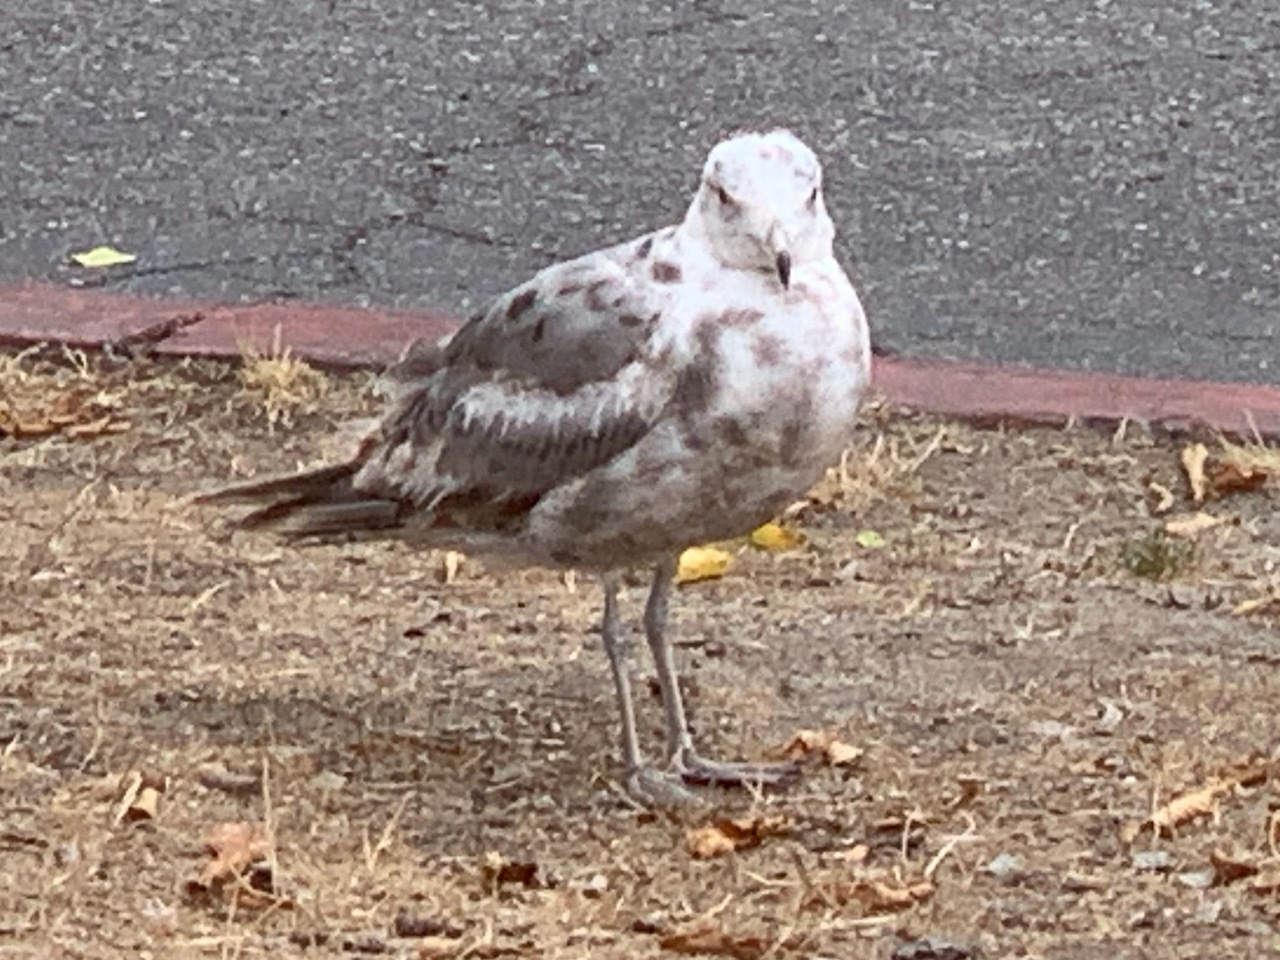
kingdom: Animalia
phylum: Chordata
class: Aves
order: Charadriiformes
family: Laridae
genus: Larus
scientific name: Larus californicus
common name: California gull
